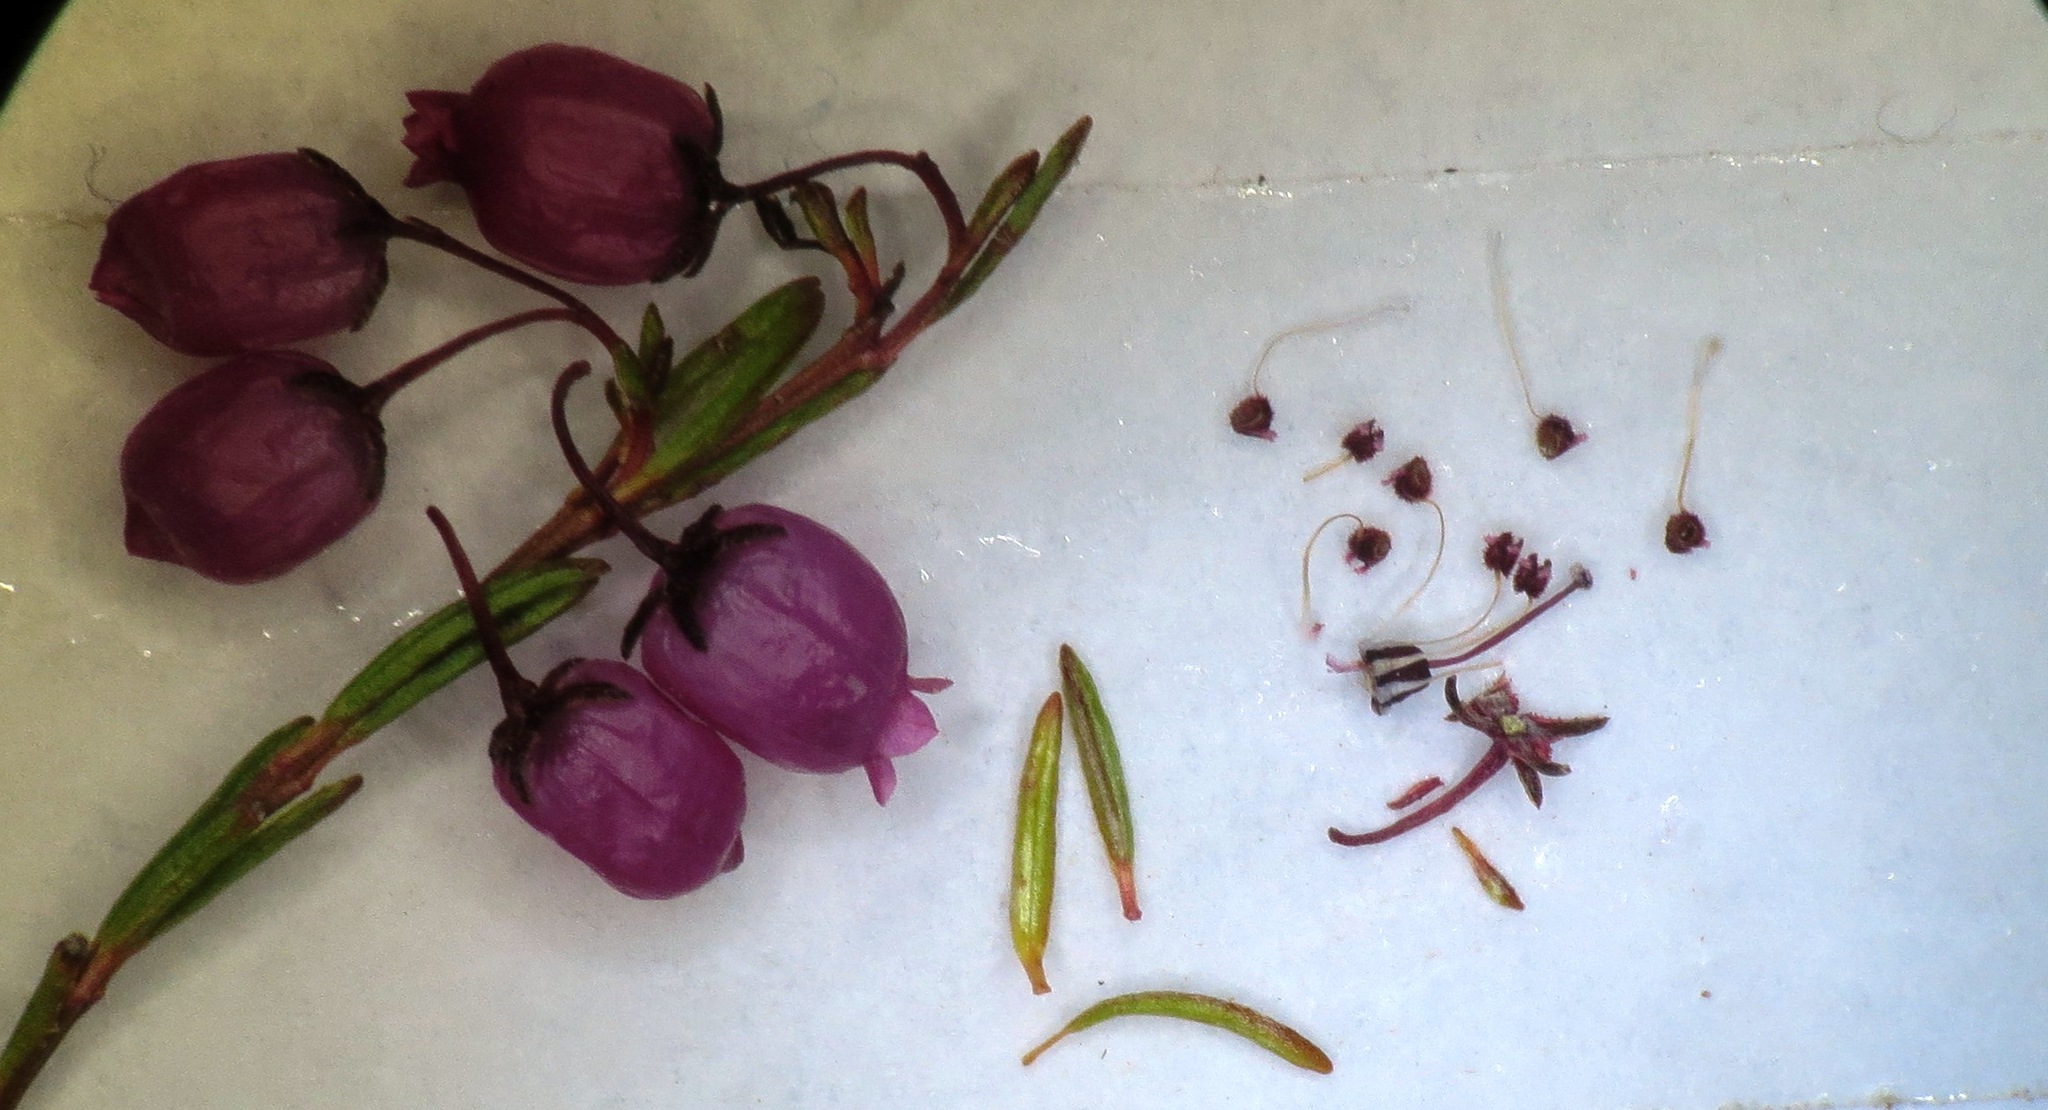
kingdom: Plantae
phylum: Tracheophyta
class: Magnoliopsida
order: Ericales
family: Ericaceae
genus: Erica
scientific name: Erica multumbellifera
